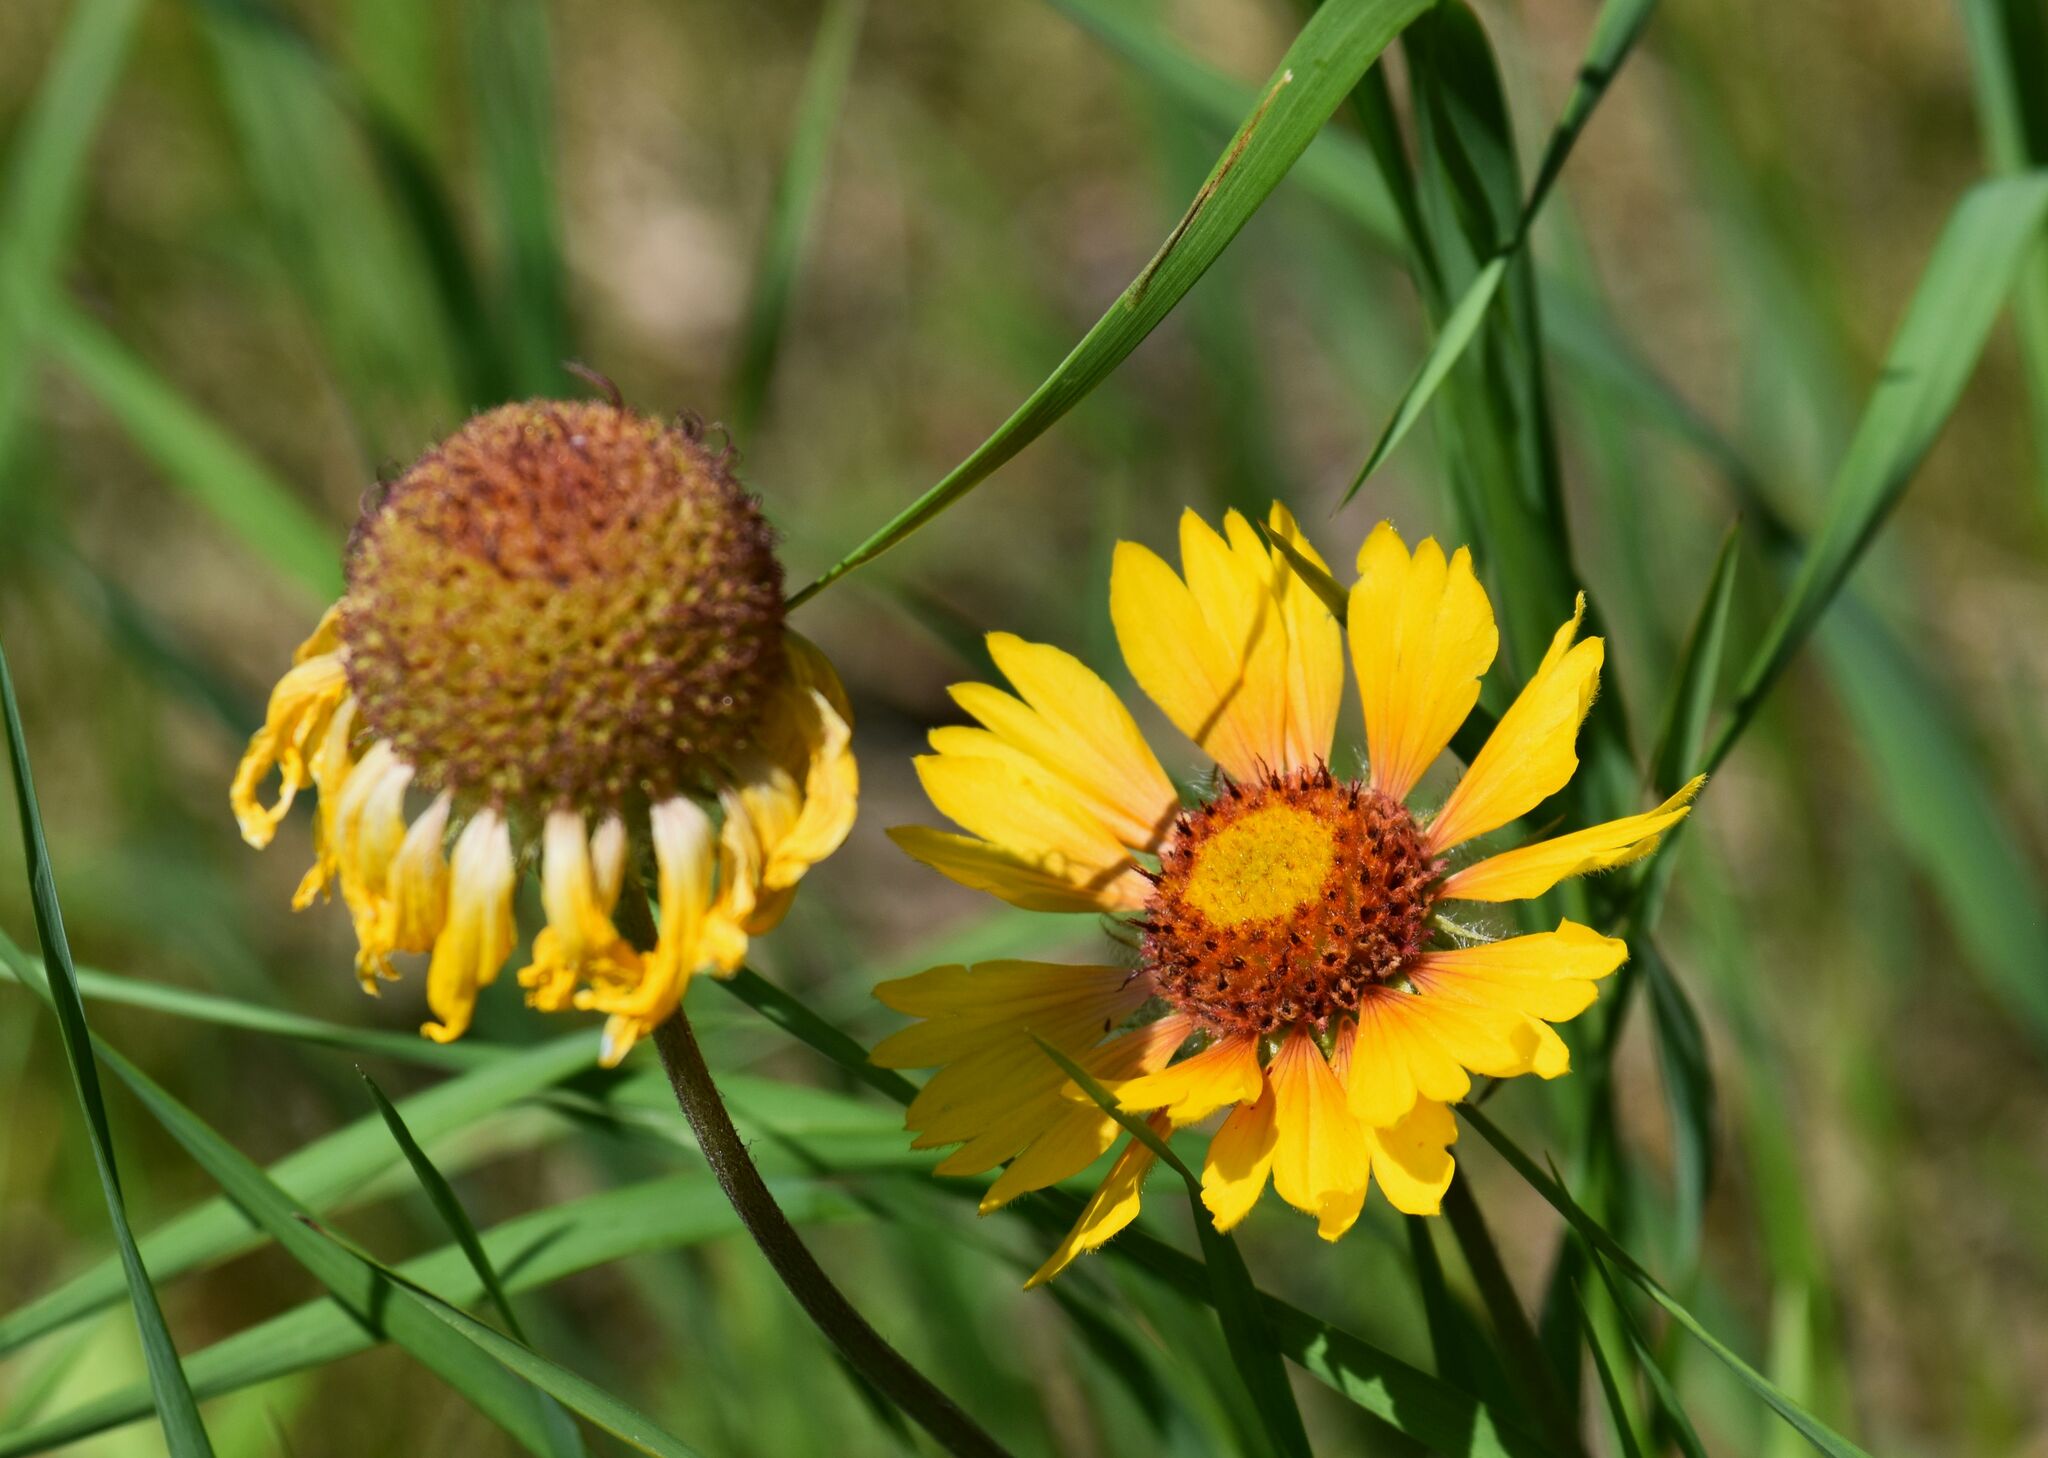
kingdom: Plantae
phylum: Tracheophyta
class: Magnoliopsida
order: Asterales
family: Asteraceae
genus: Gaillardia
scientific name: Gaillardia aristata
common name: Blanket-flower
